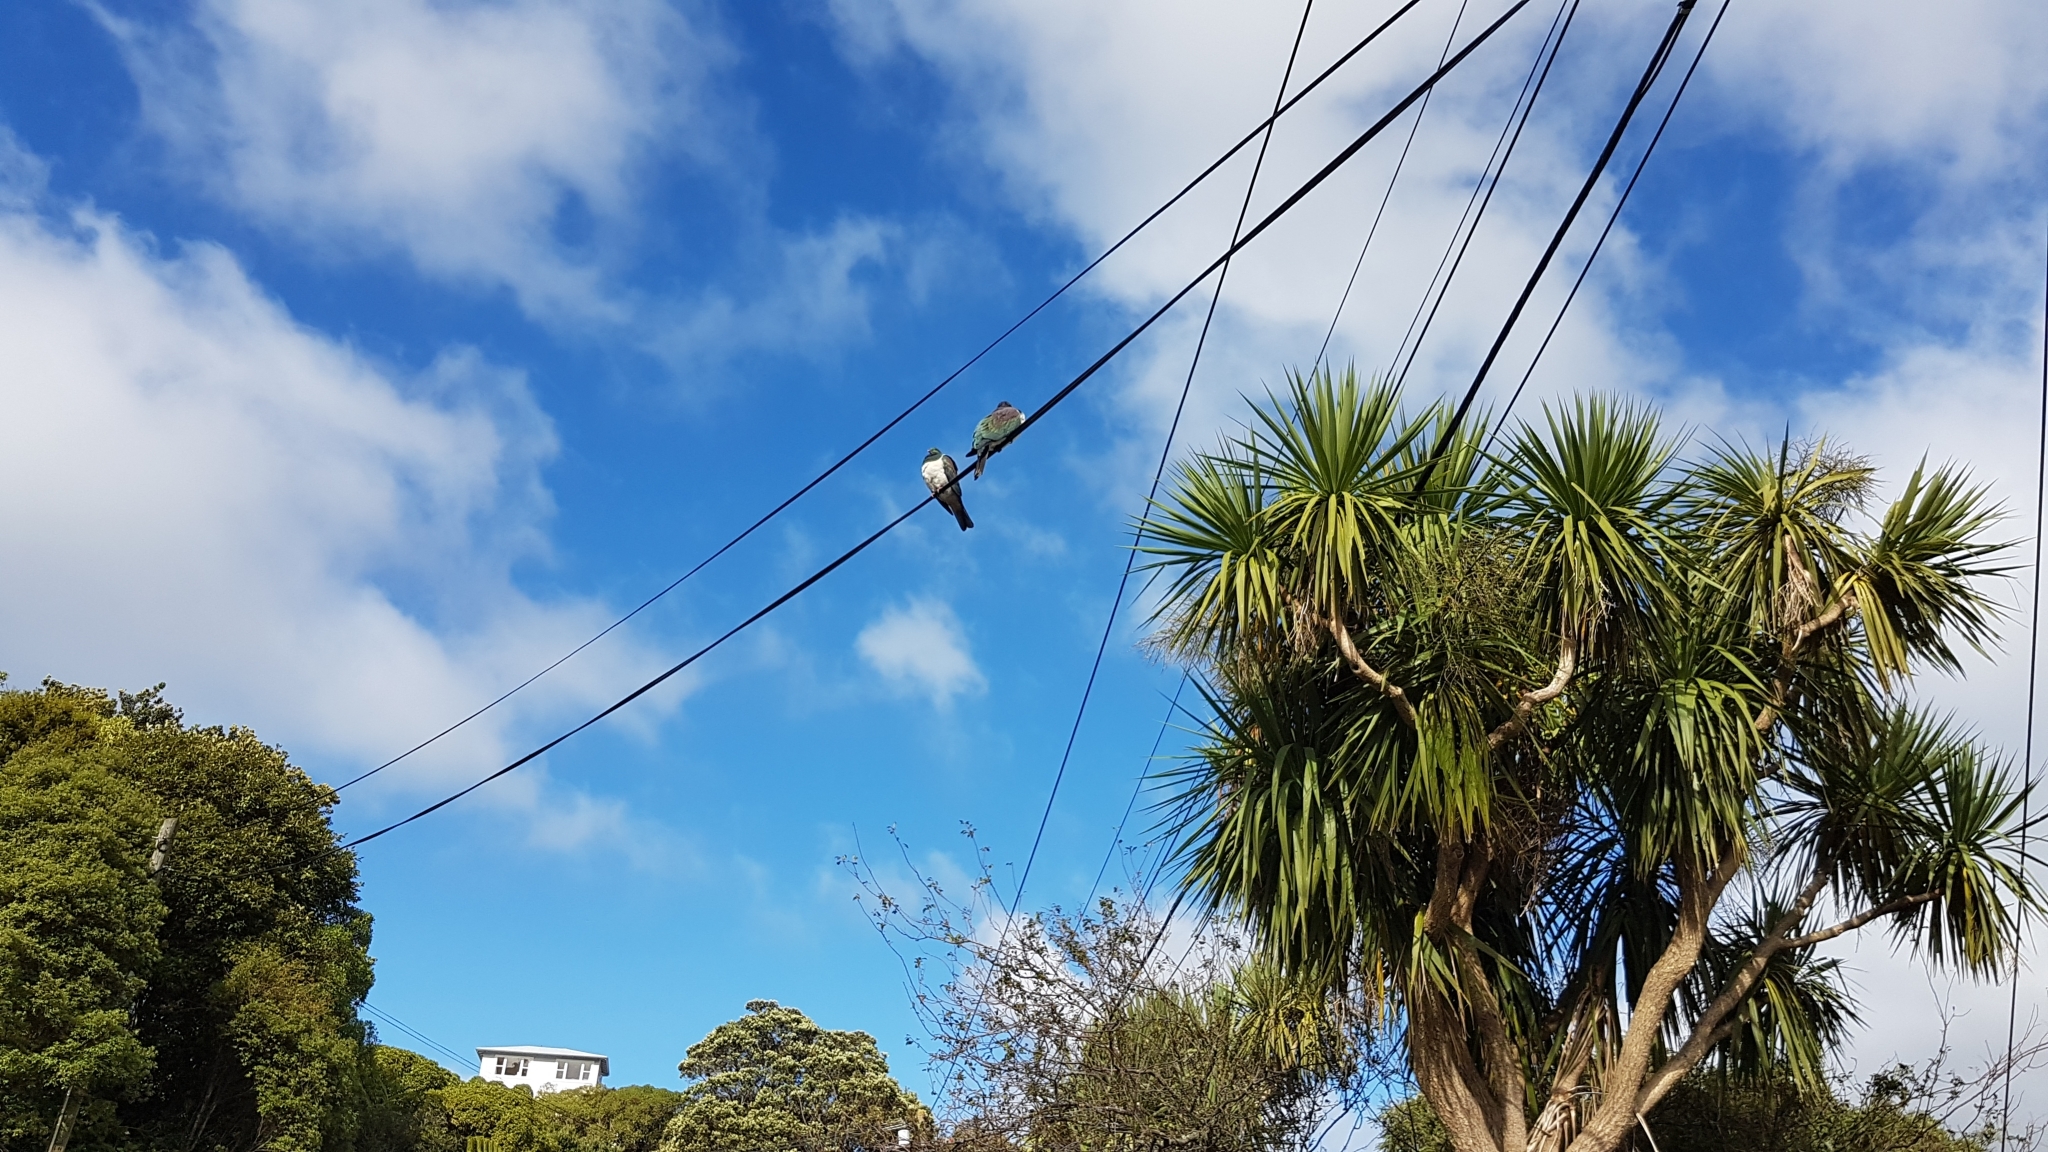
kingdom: Animalia
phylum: Chordata
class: Aves
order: Columbiformes
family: Columbidae
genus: Hemiphaga
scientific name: Hemiphaga novaeseelandiae
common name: New zealand pigeon
